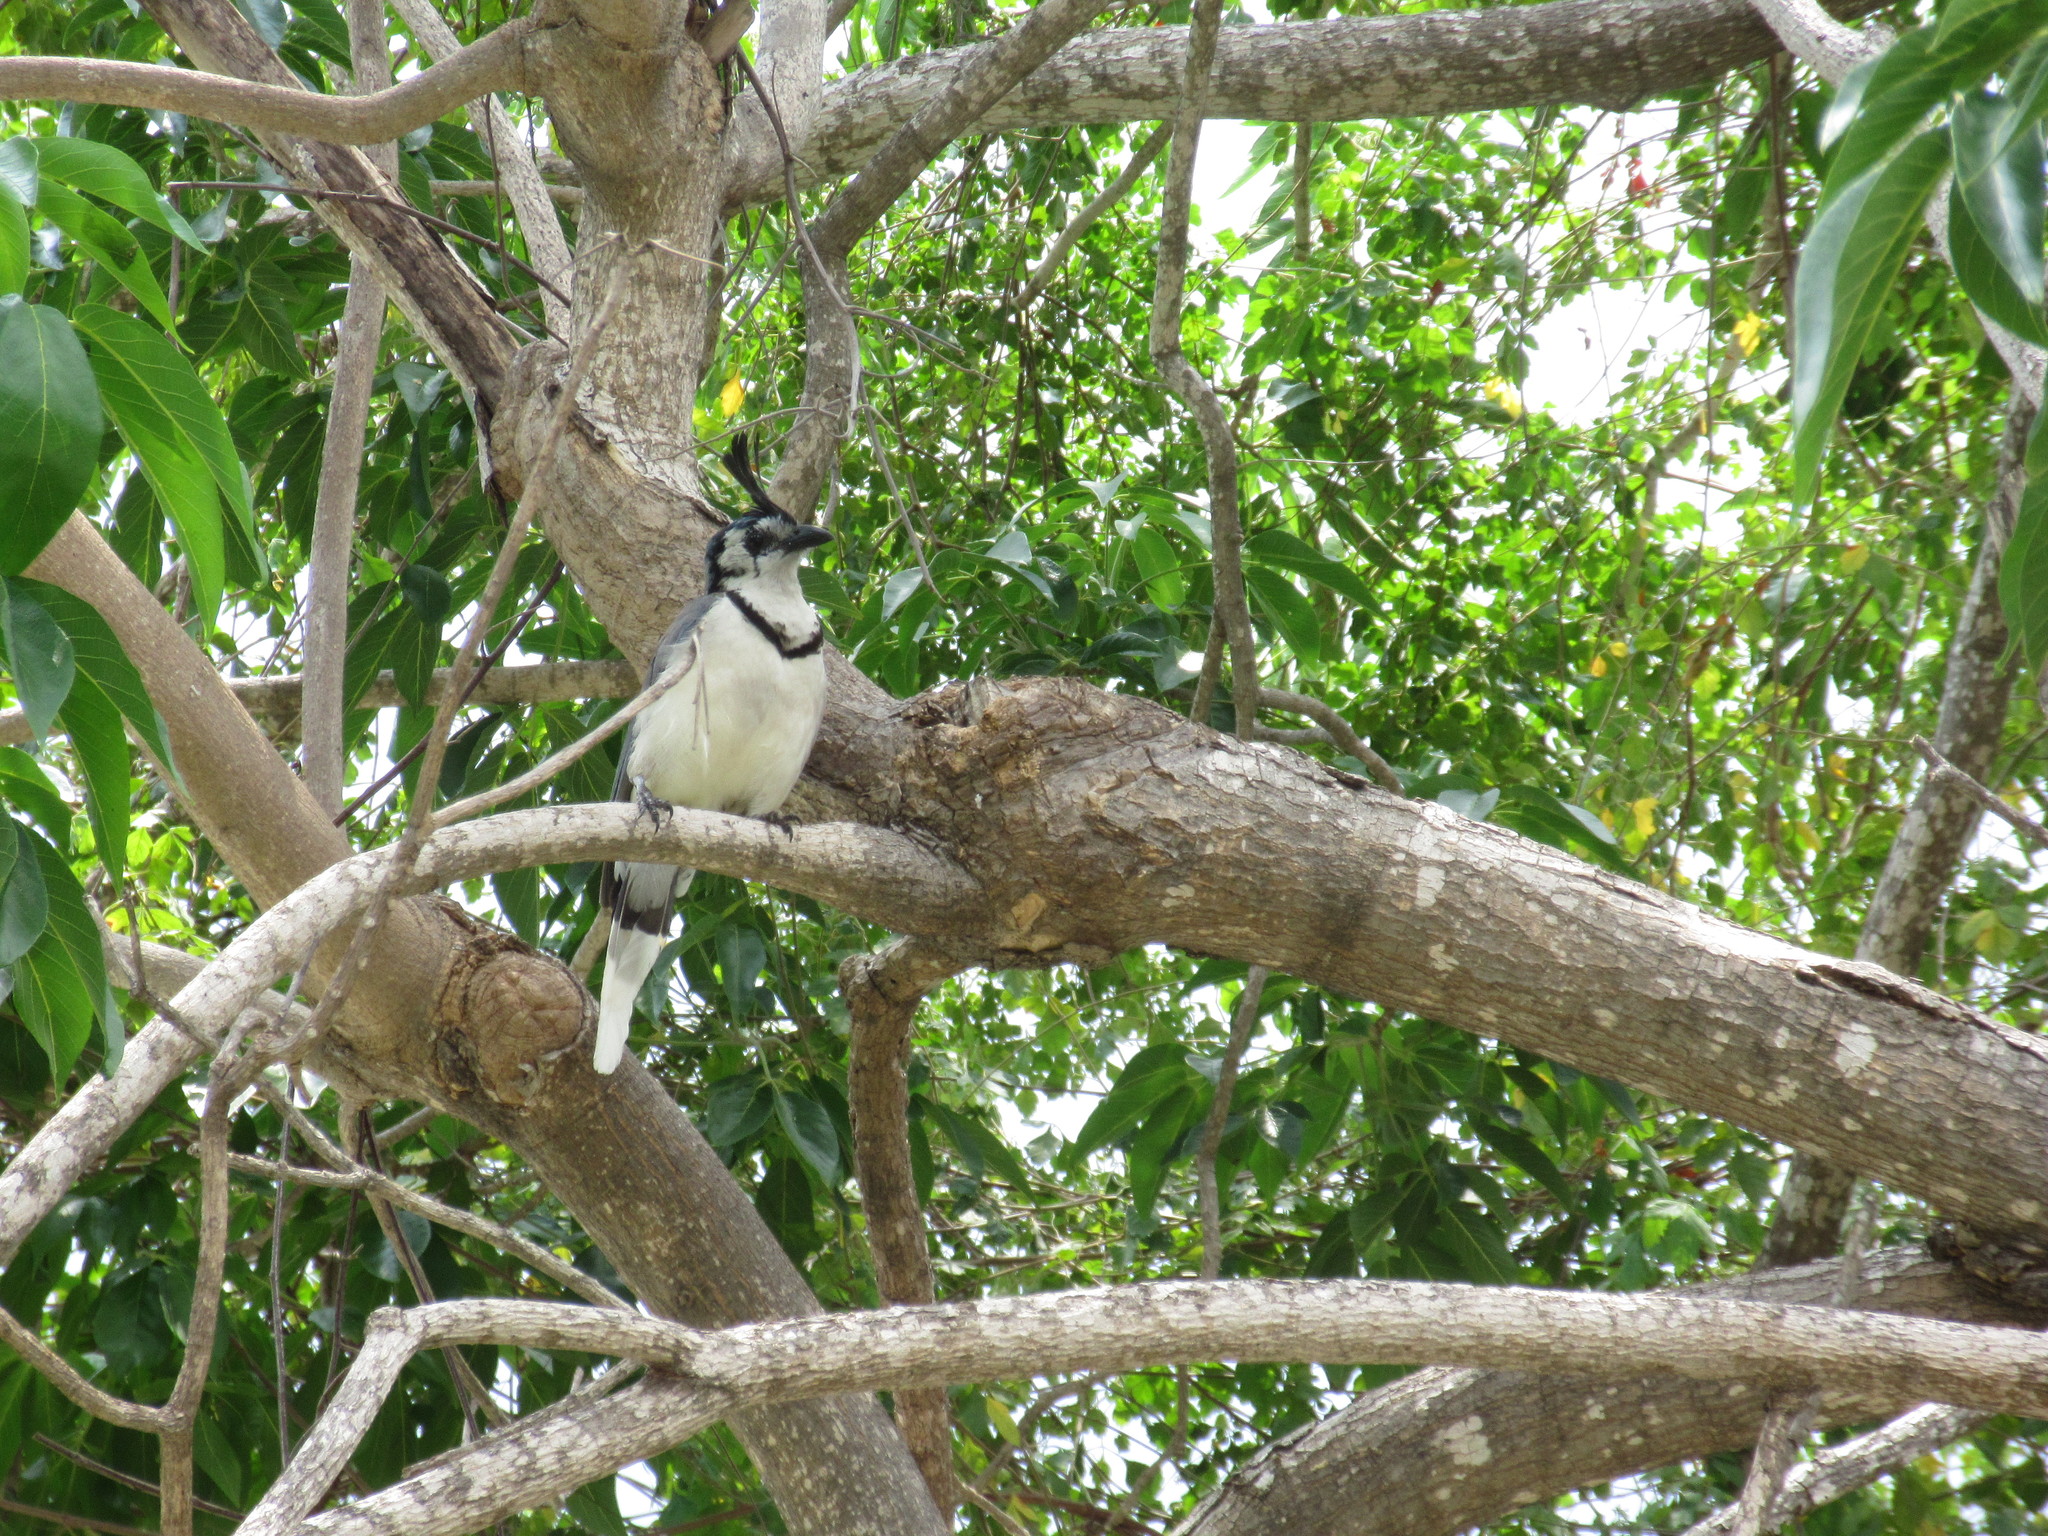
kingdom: Animalia
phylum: Chordata
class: Aves
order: Passeriformes
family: Corvidae
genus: Calocitta
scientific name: Calocitta formosa
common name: White-throated magpie-jay
